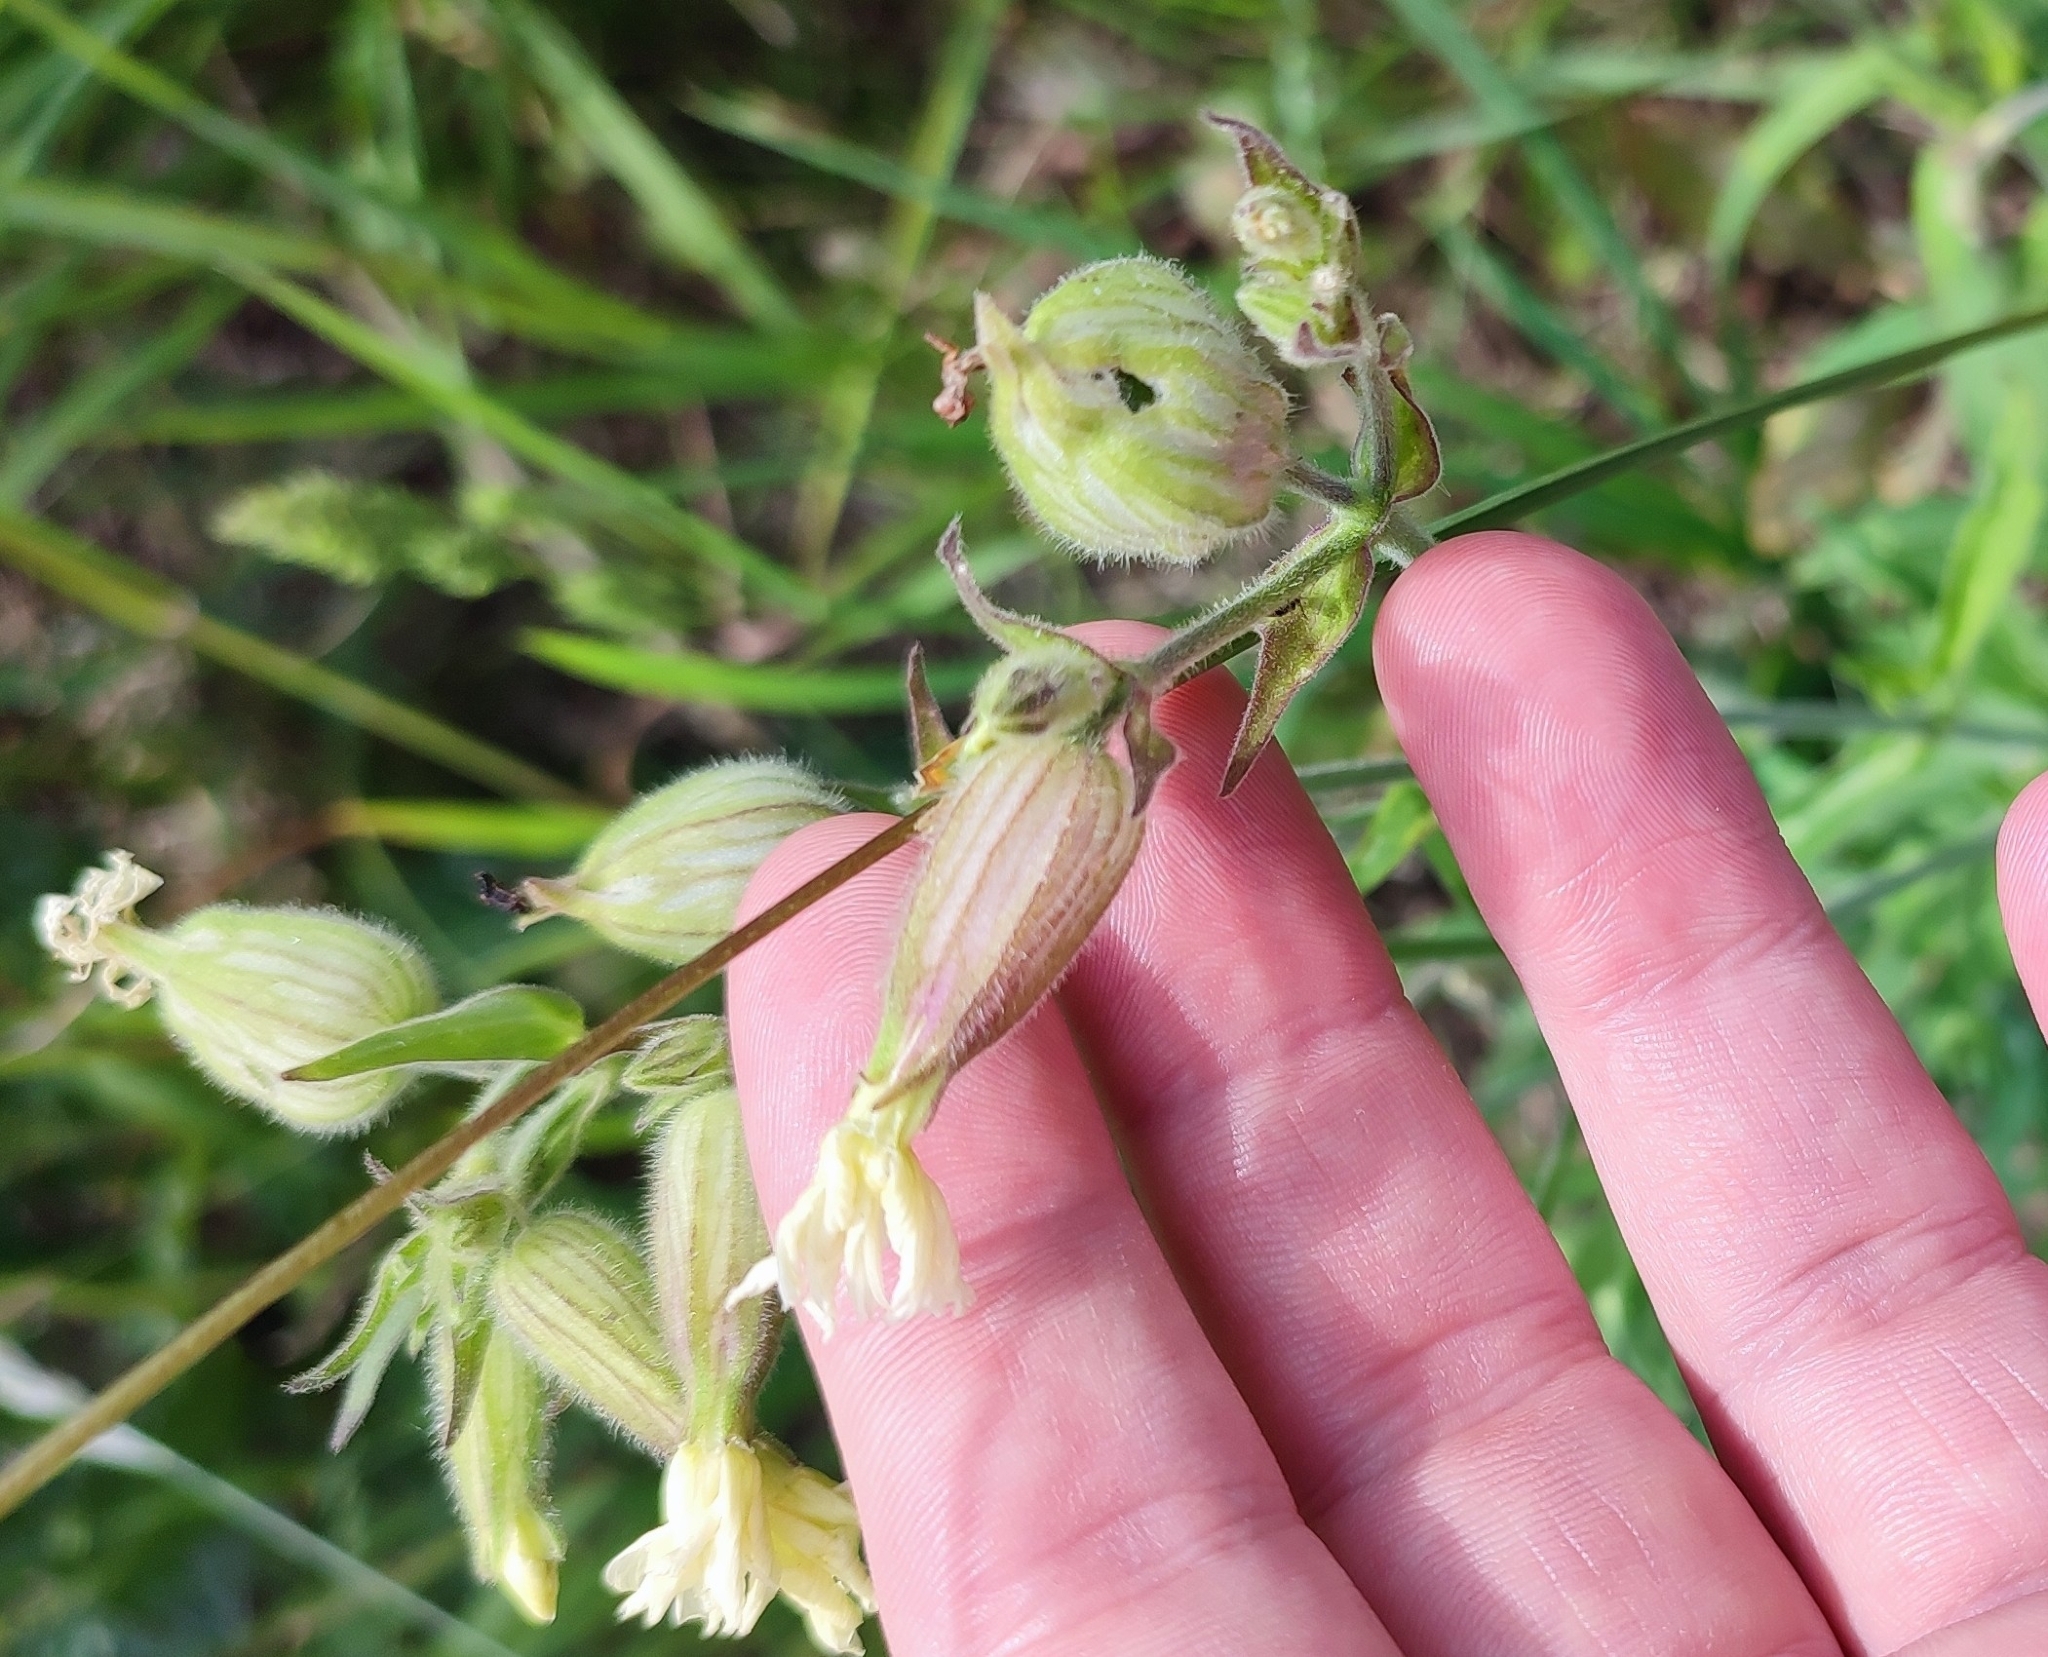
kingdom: Plantae
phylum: Tracheophyta
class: Magnoliopsida
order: Caryophyllales
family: Caryophyllaceae
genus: Silene
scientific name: Silene latifolia
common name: White campion
